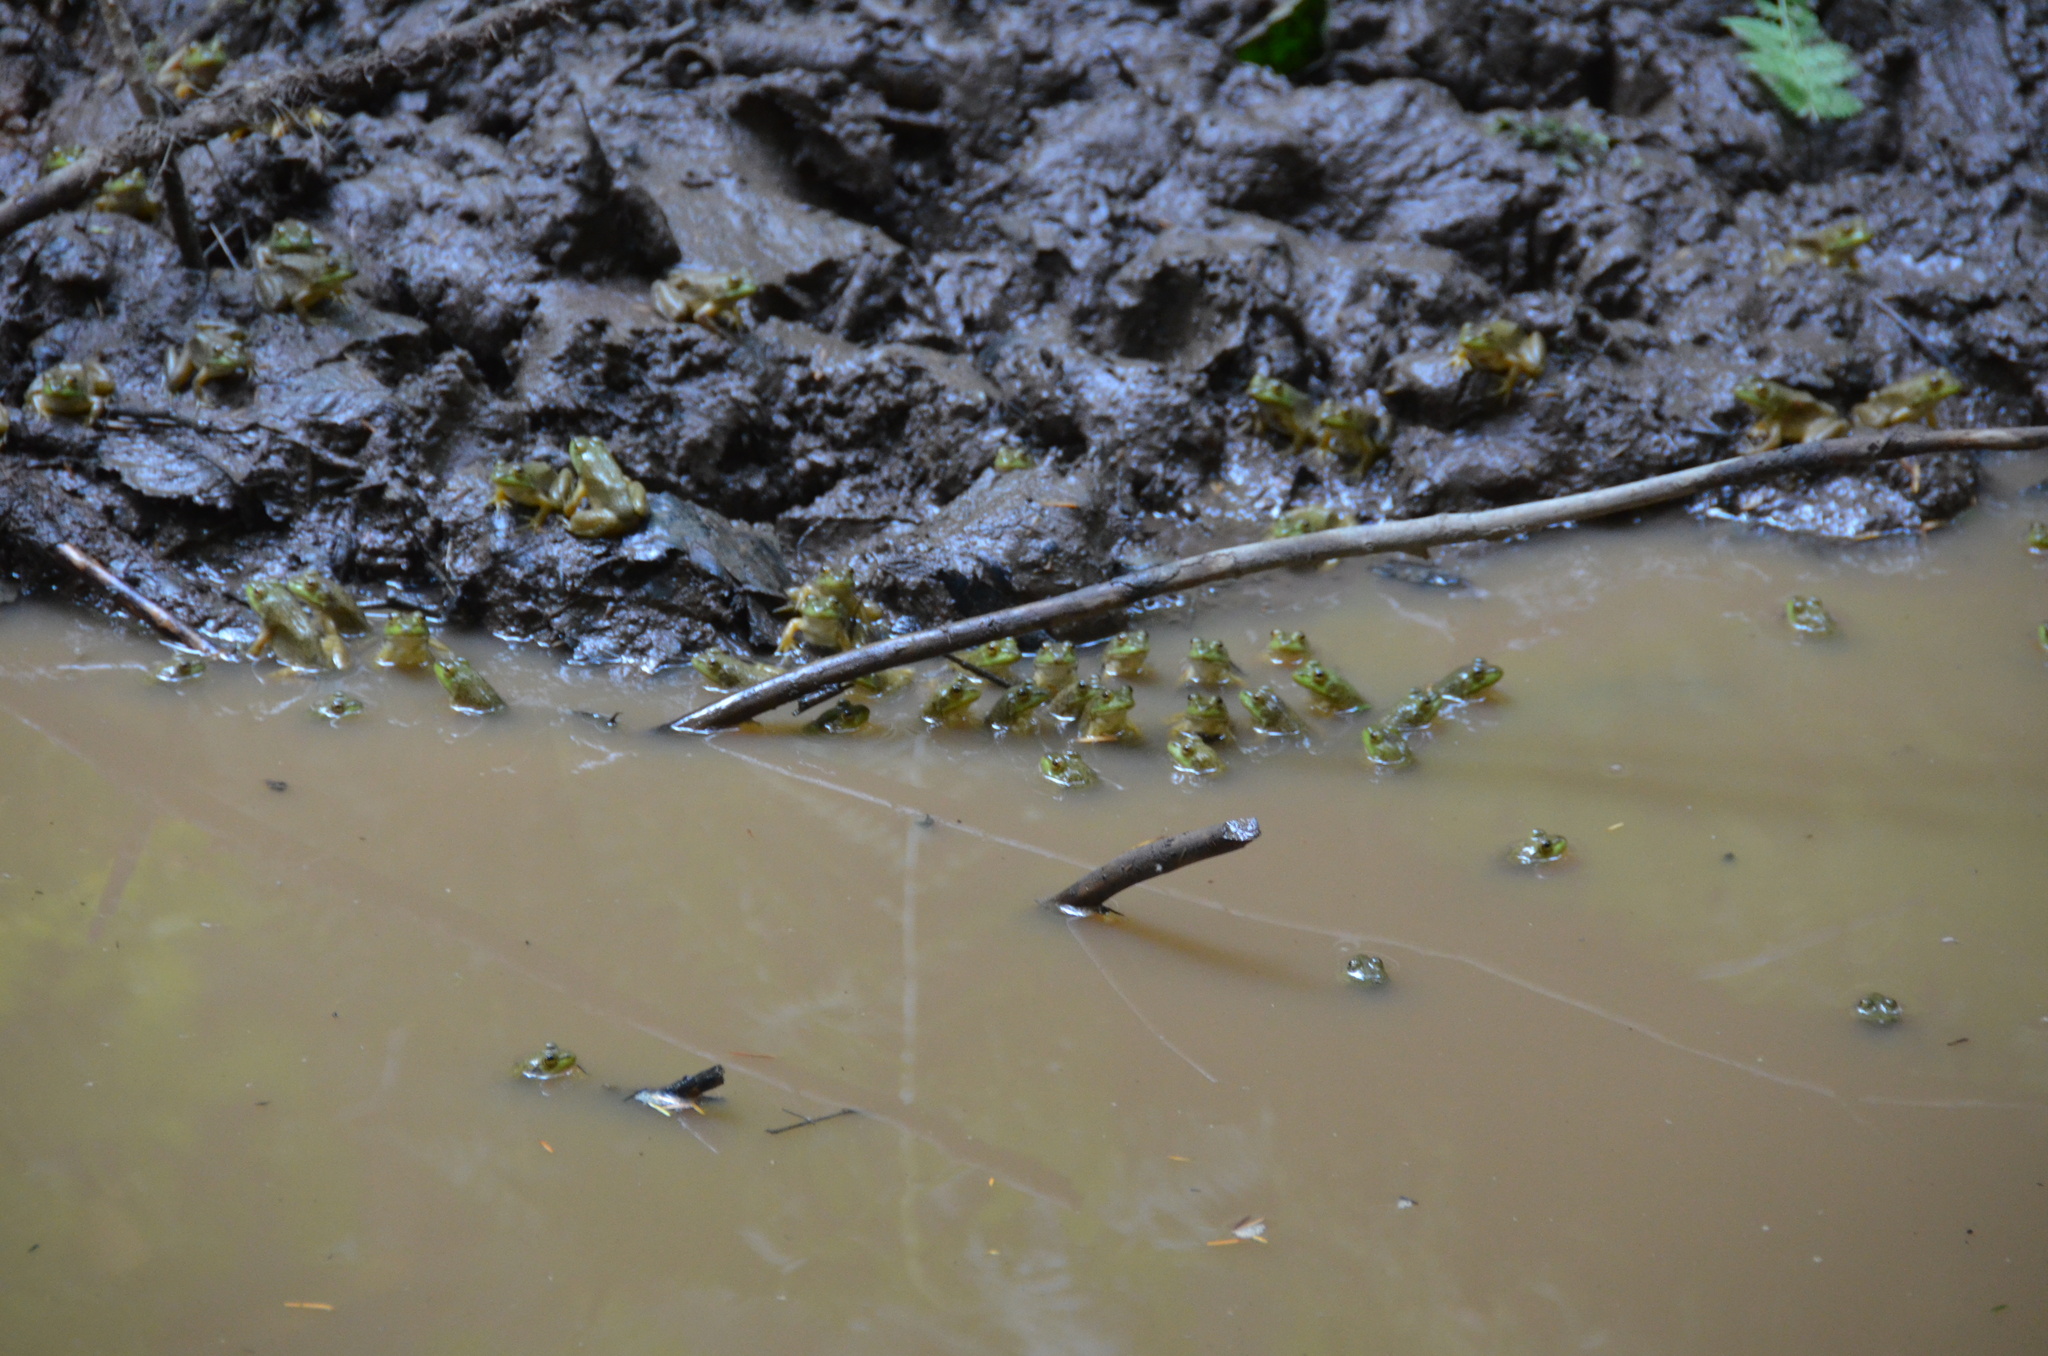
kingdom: Animalia
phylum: Chordata
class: Amphibia
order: Anura
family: Ranidae
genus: Lithobates
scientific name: Lithobates catesbeianus
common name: American bullfrog
